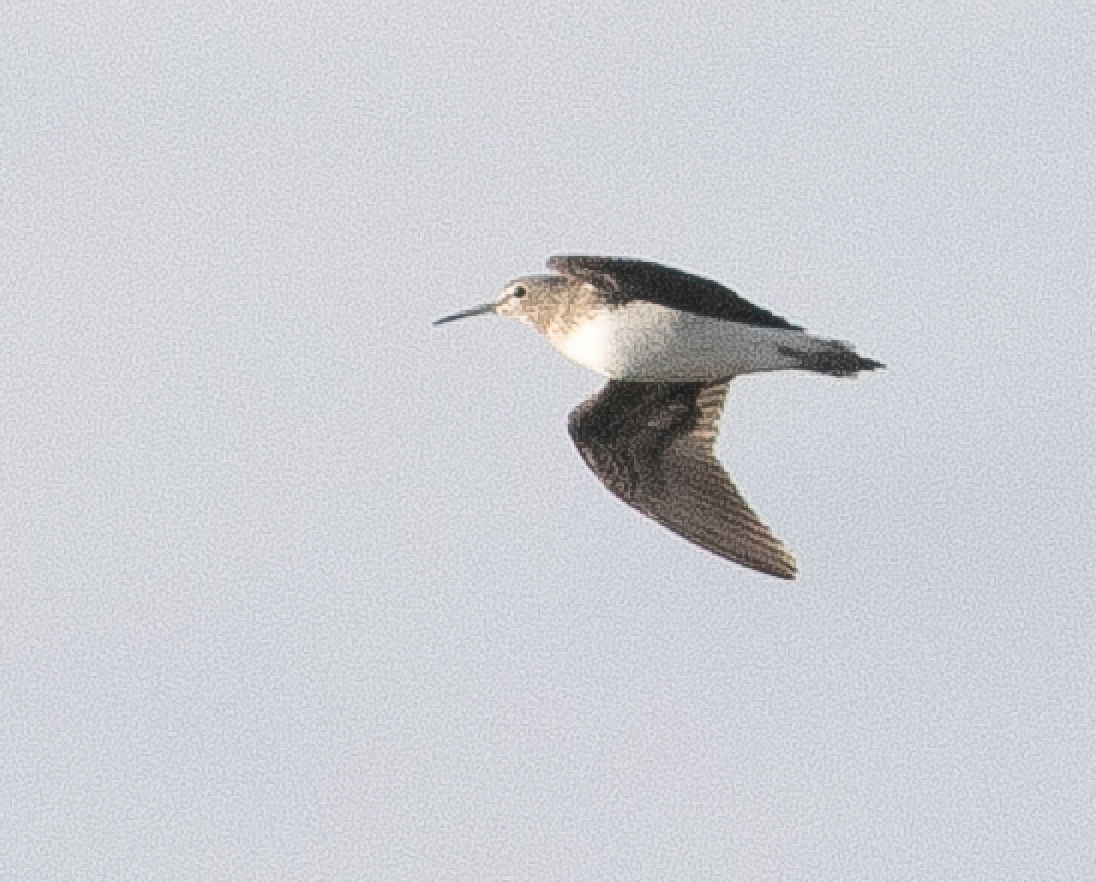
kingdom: Animalia
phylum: Chordata
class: Aves
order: Charadriiformes
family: Scolopacidae
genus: Tringa
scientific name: Tringa ochropus
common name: Green sandpiper
